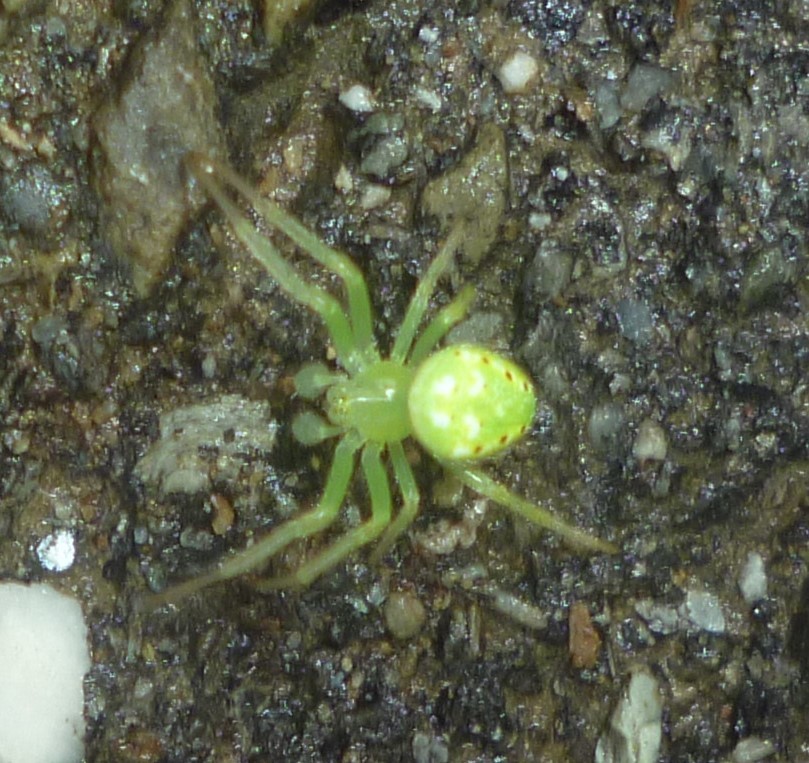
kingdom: Animalia
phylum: Arthropoda
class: Arachnida
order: Araneae
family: Araneidae
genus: Araneus
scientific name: Araneus cingulatus
